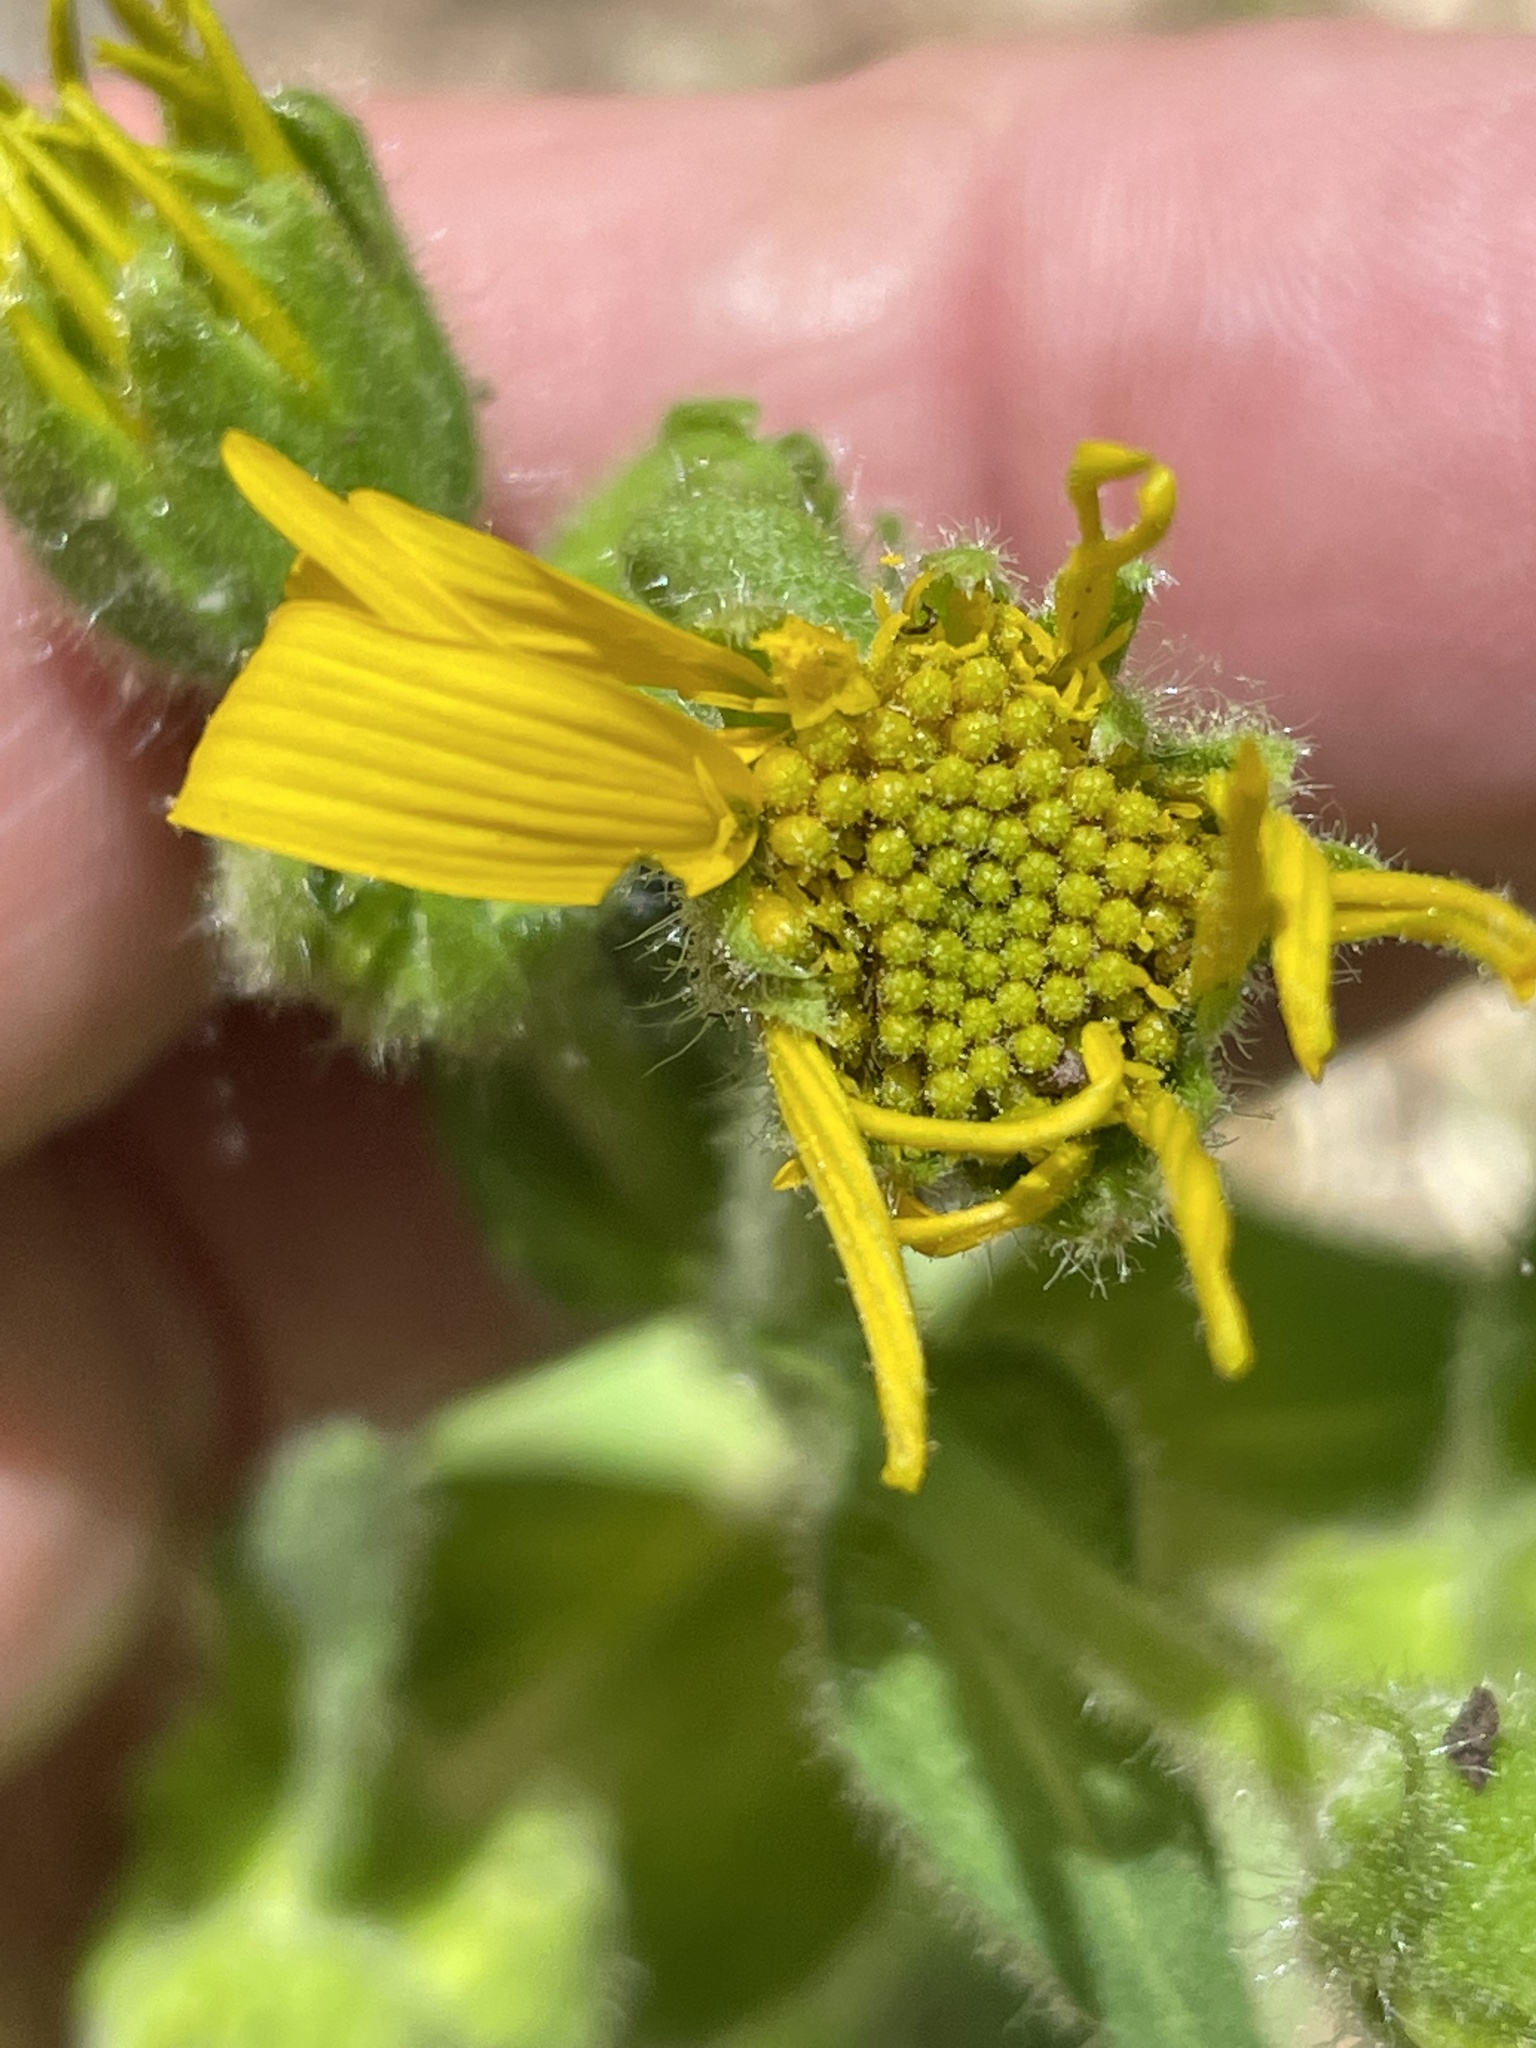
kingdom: Plantae
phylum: Tracheophyta
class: Magnoliopsida
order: Asterales
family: Asteraceae
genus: Arnica
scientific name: Arnica acaulis
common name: Common leopardbane
